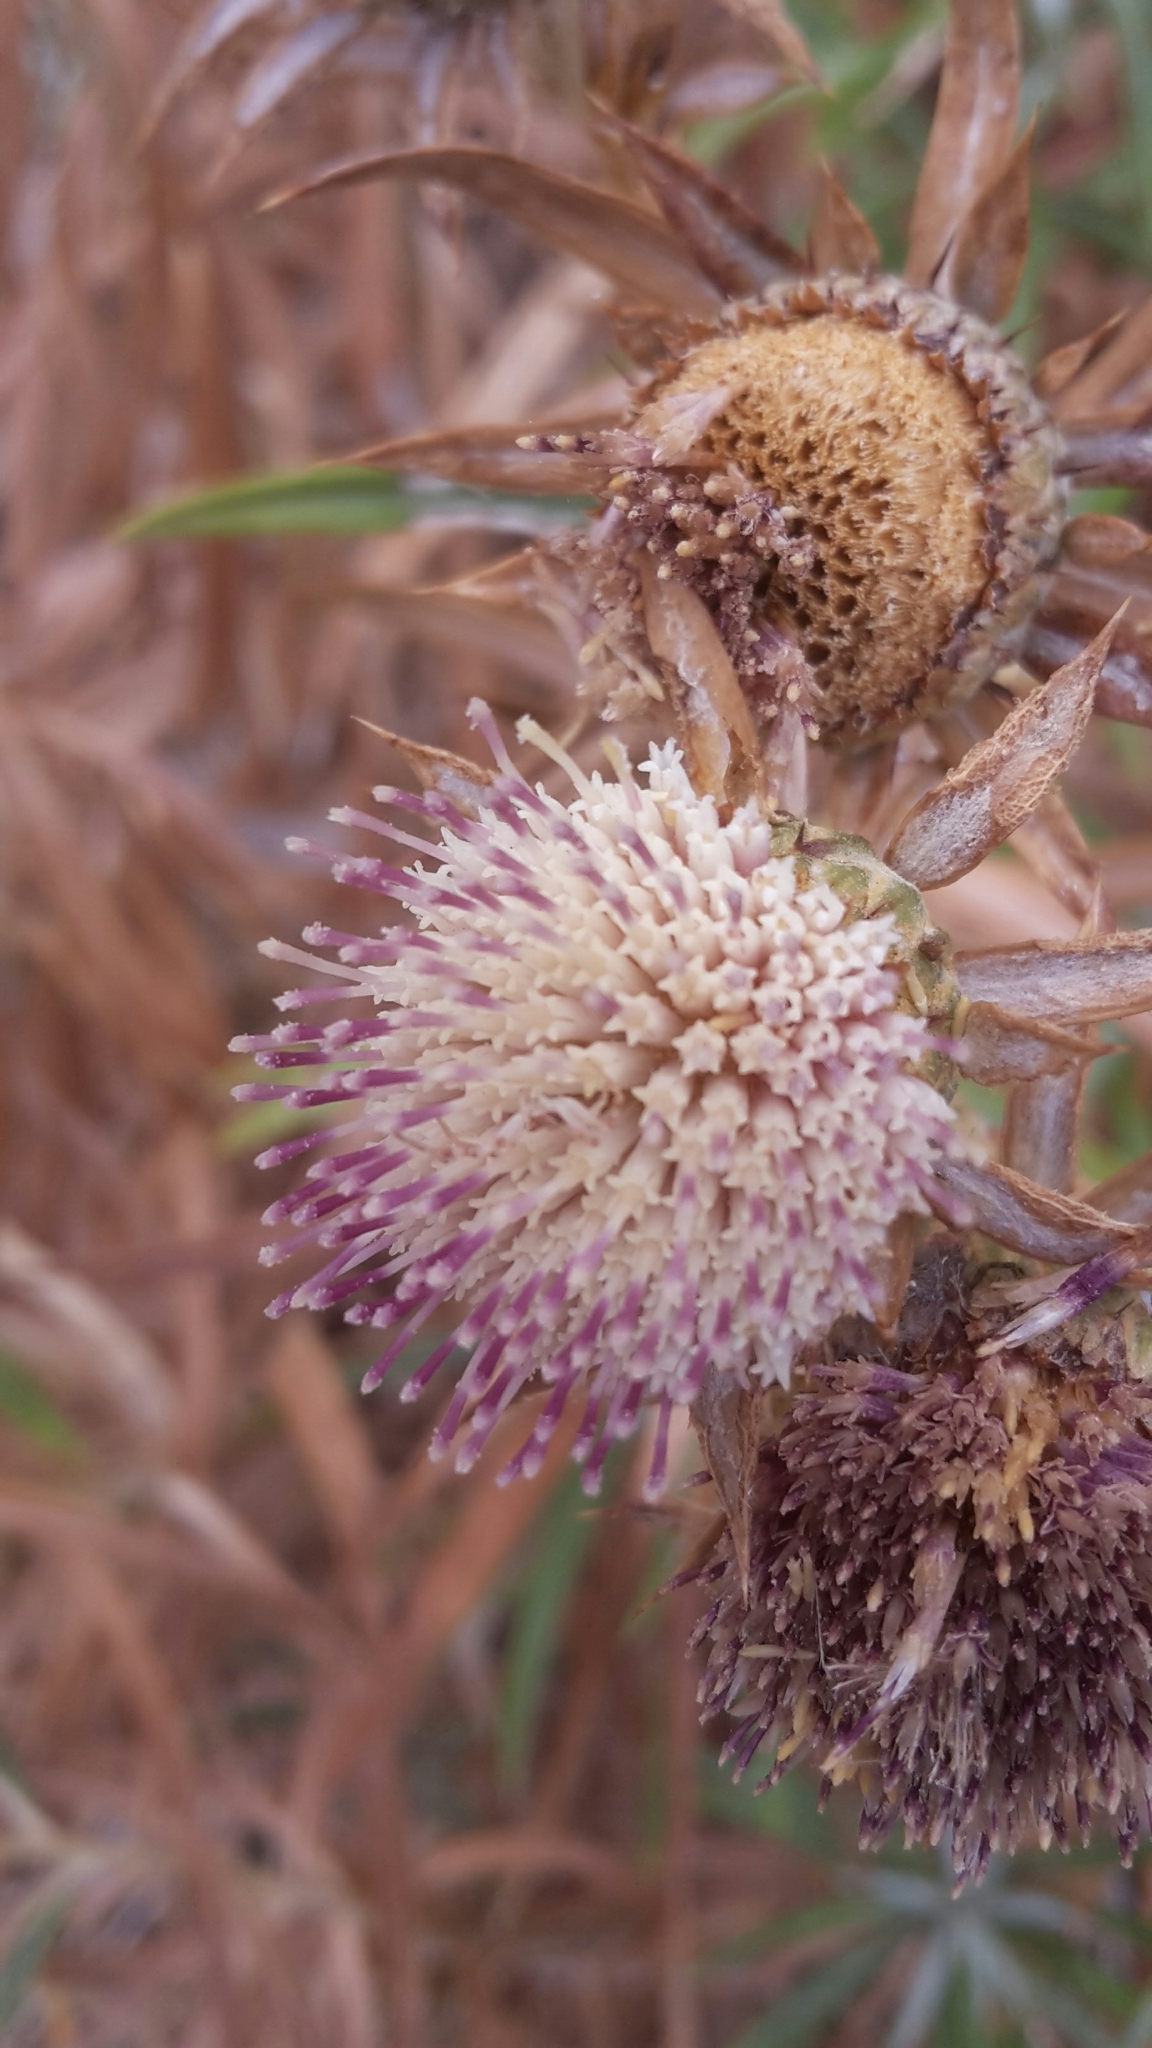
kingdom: Plantae
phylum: Tracheophyta
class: Magnoliopsida
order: Asterales
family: Asteraceae
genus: Carlina
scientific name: Carlina falcata
